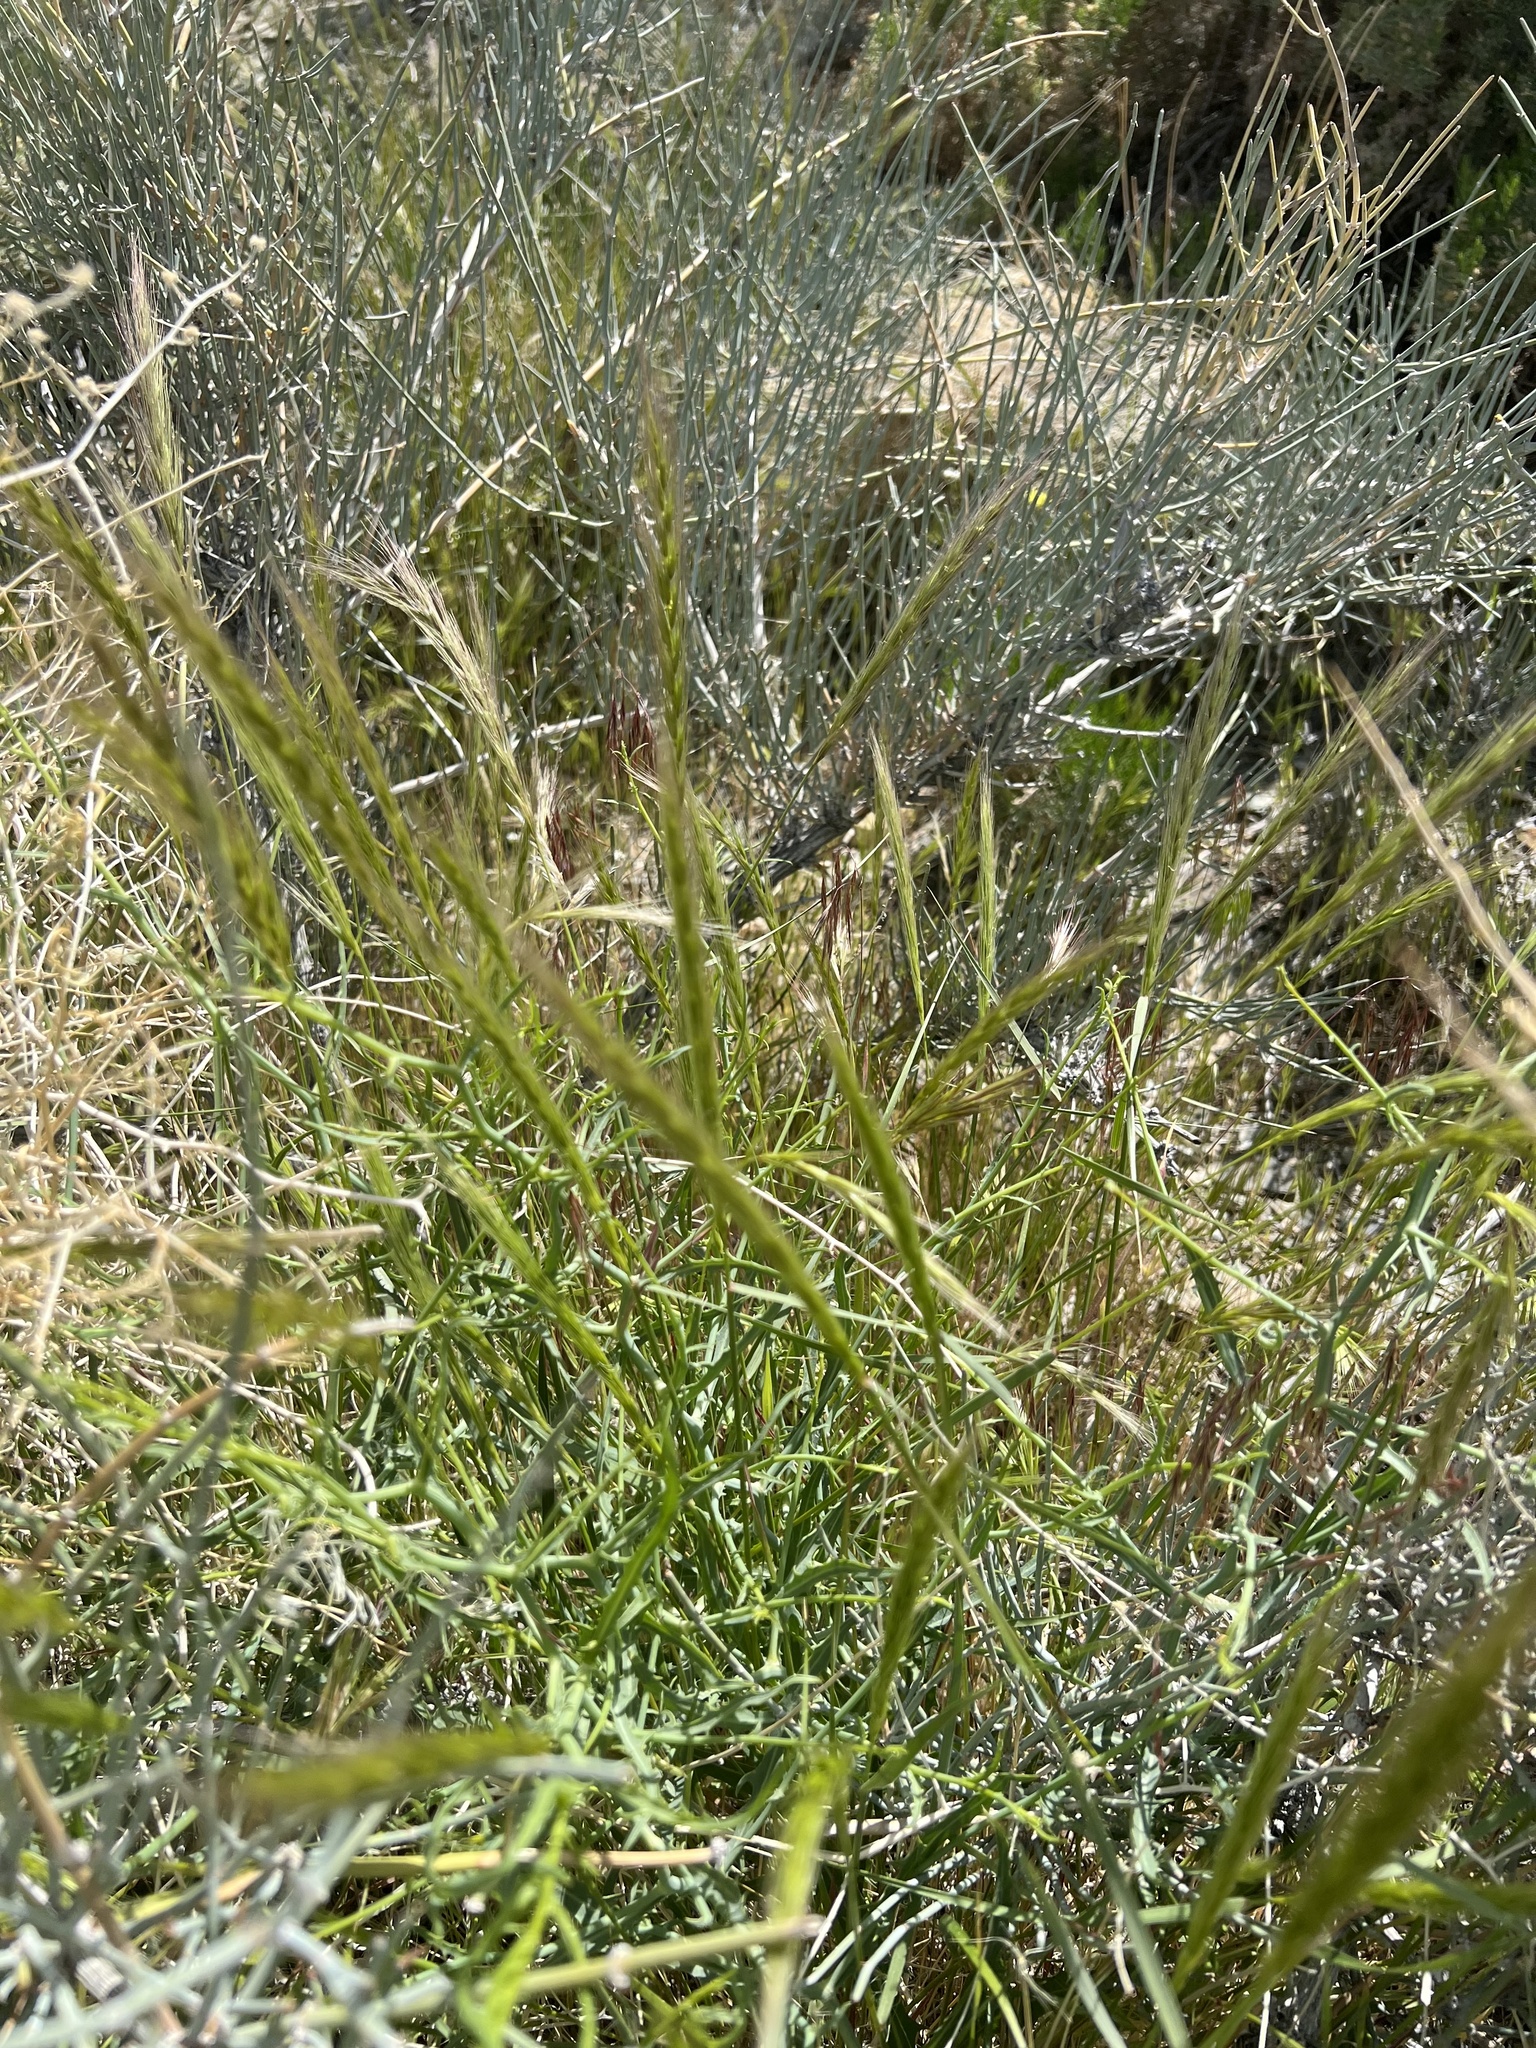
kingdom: Plantae
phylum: Tracheophyta
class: Liliopsida
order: Poales
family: Poaceae
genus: Elymus
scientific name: Elymus elymoides
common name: Bottlebrush squirreltail
